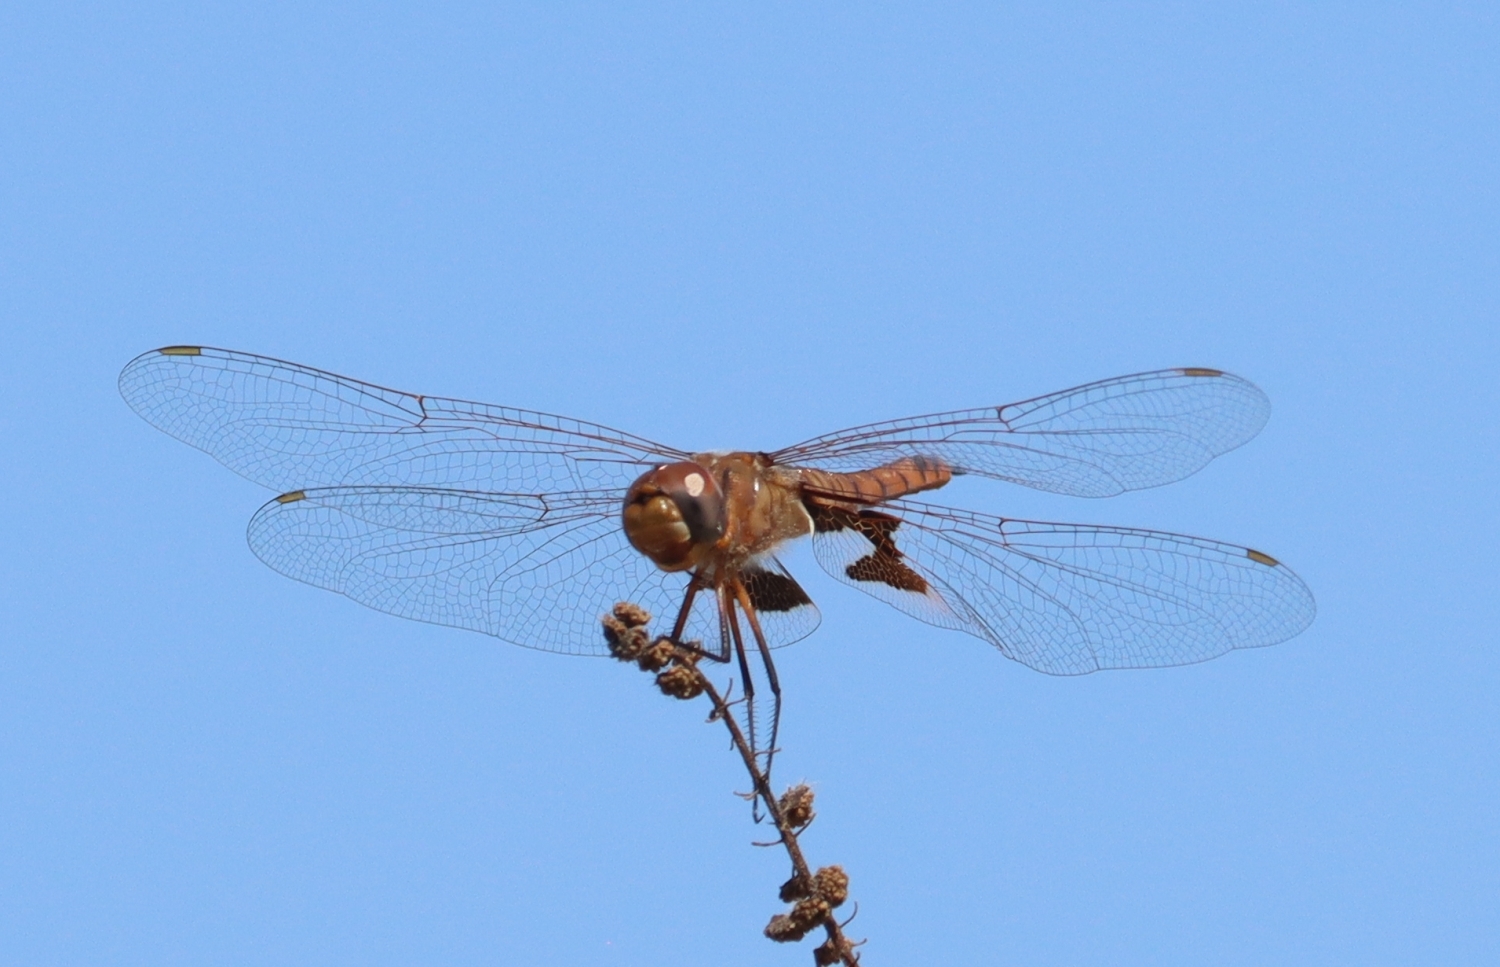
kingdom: Animalia
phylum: Arthropoda
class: Insecta
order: Odonata
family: Libellulidae
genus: Tramea
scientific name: Tramea onusta
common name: Red saddlebags
